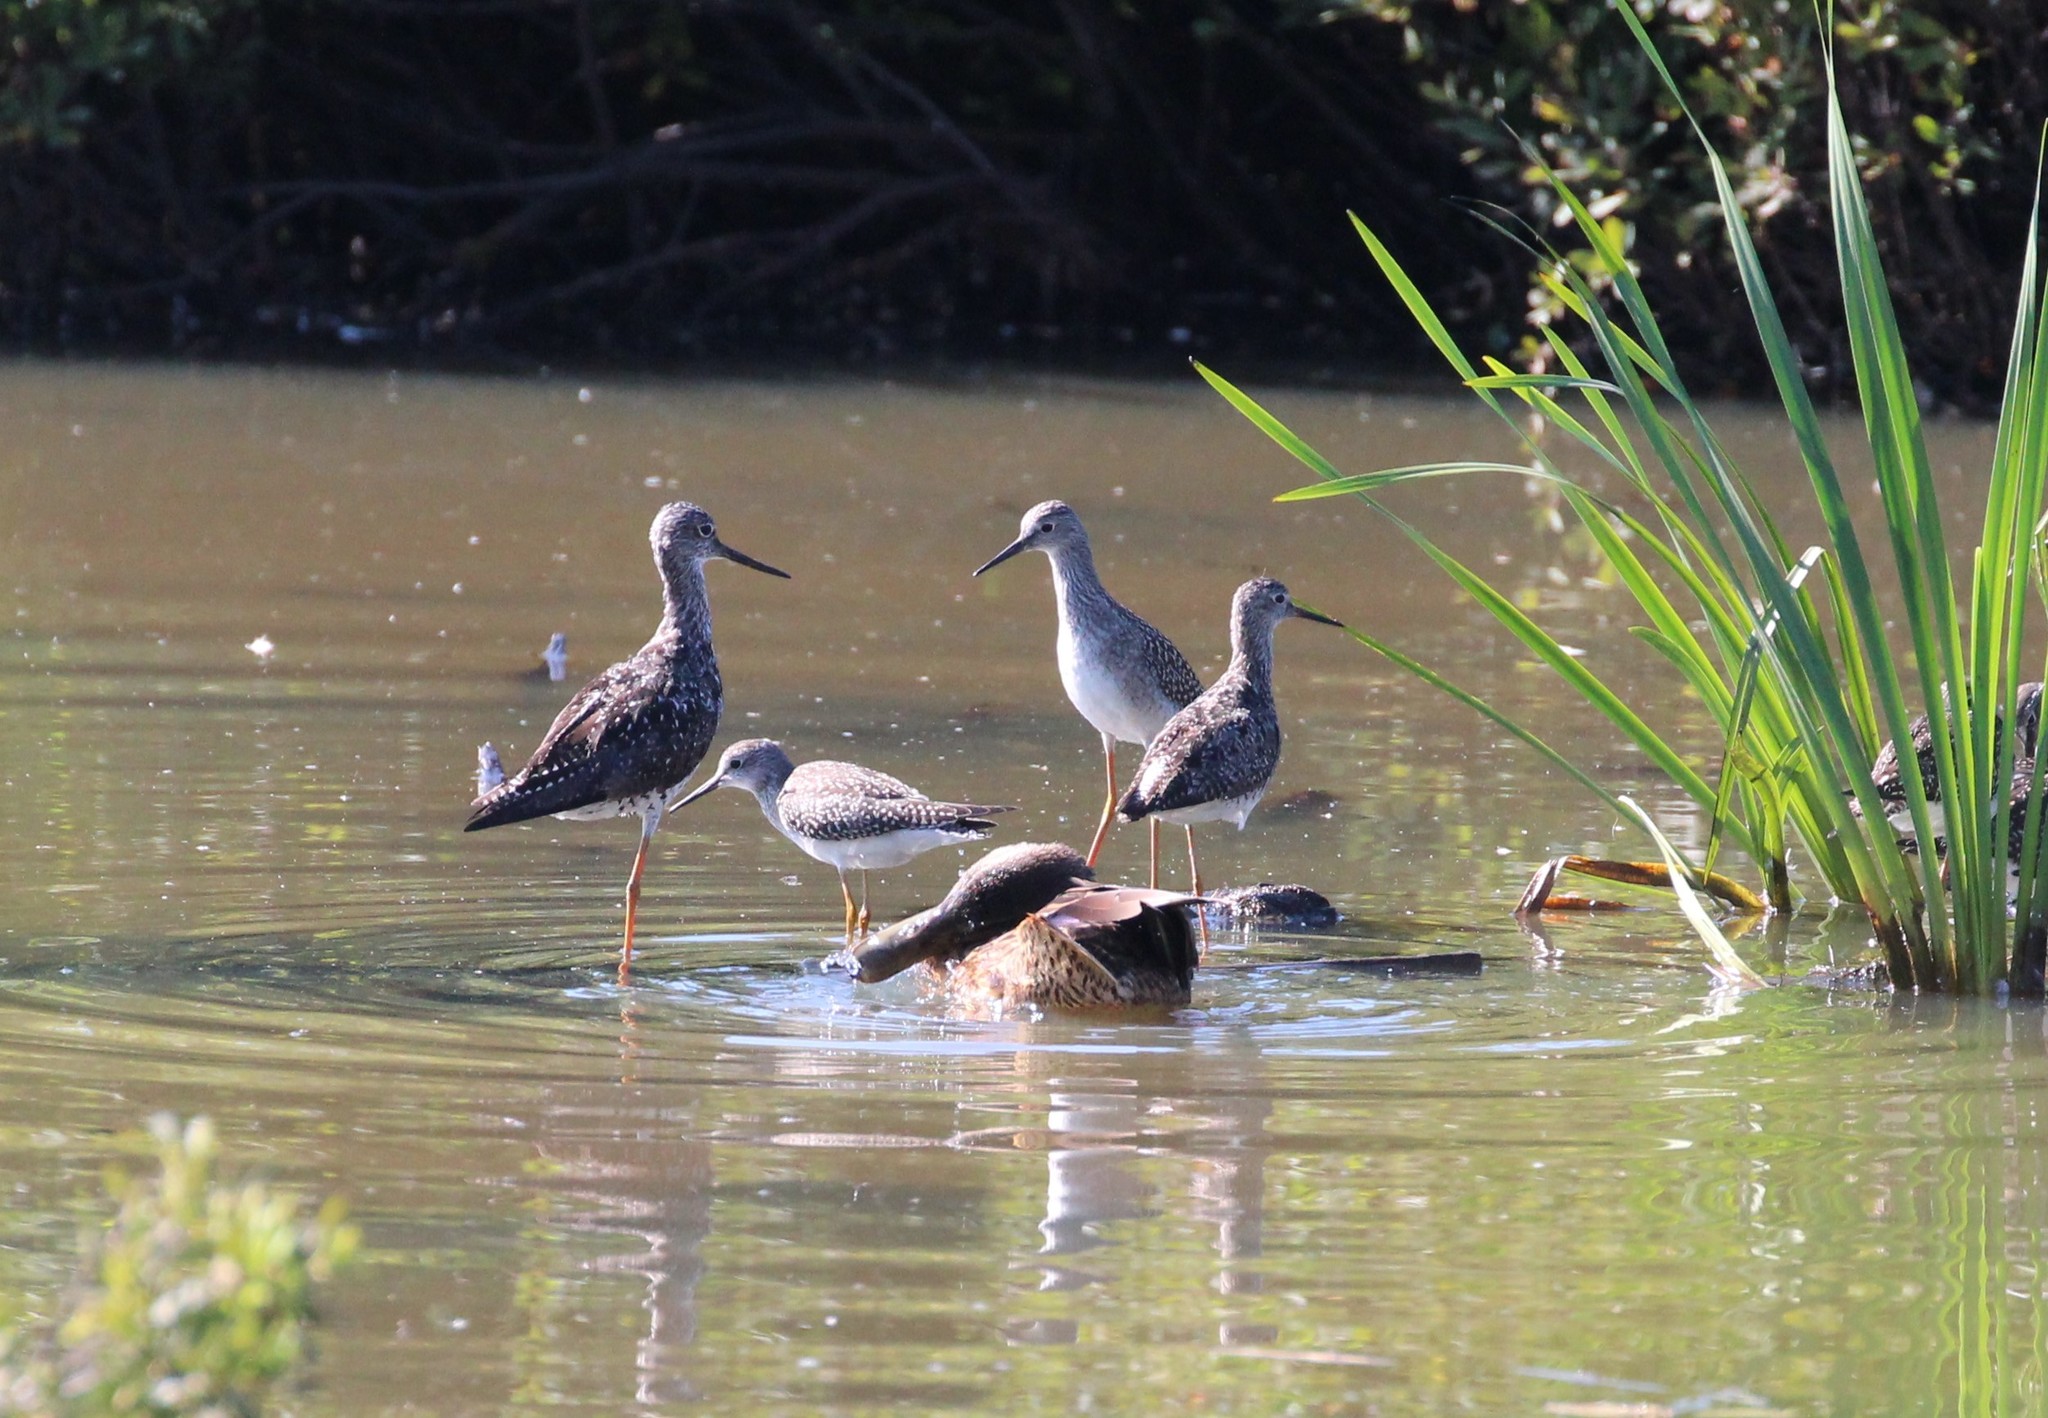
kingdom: Animalia
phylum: Chordata
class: Aves
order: Charadriiformes
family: Scolopacidae
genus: Tringa
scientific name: Tringa melanoleuca
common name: Greater yellowlegs
